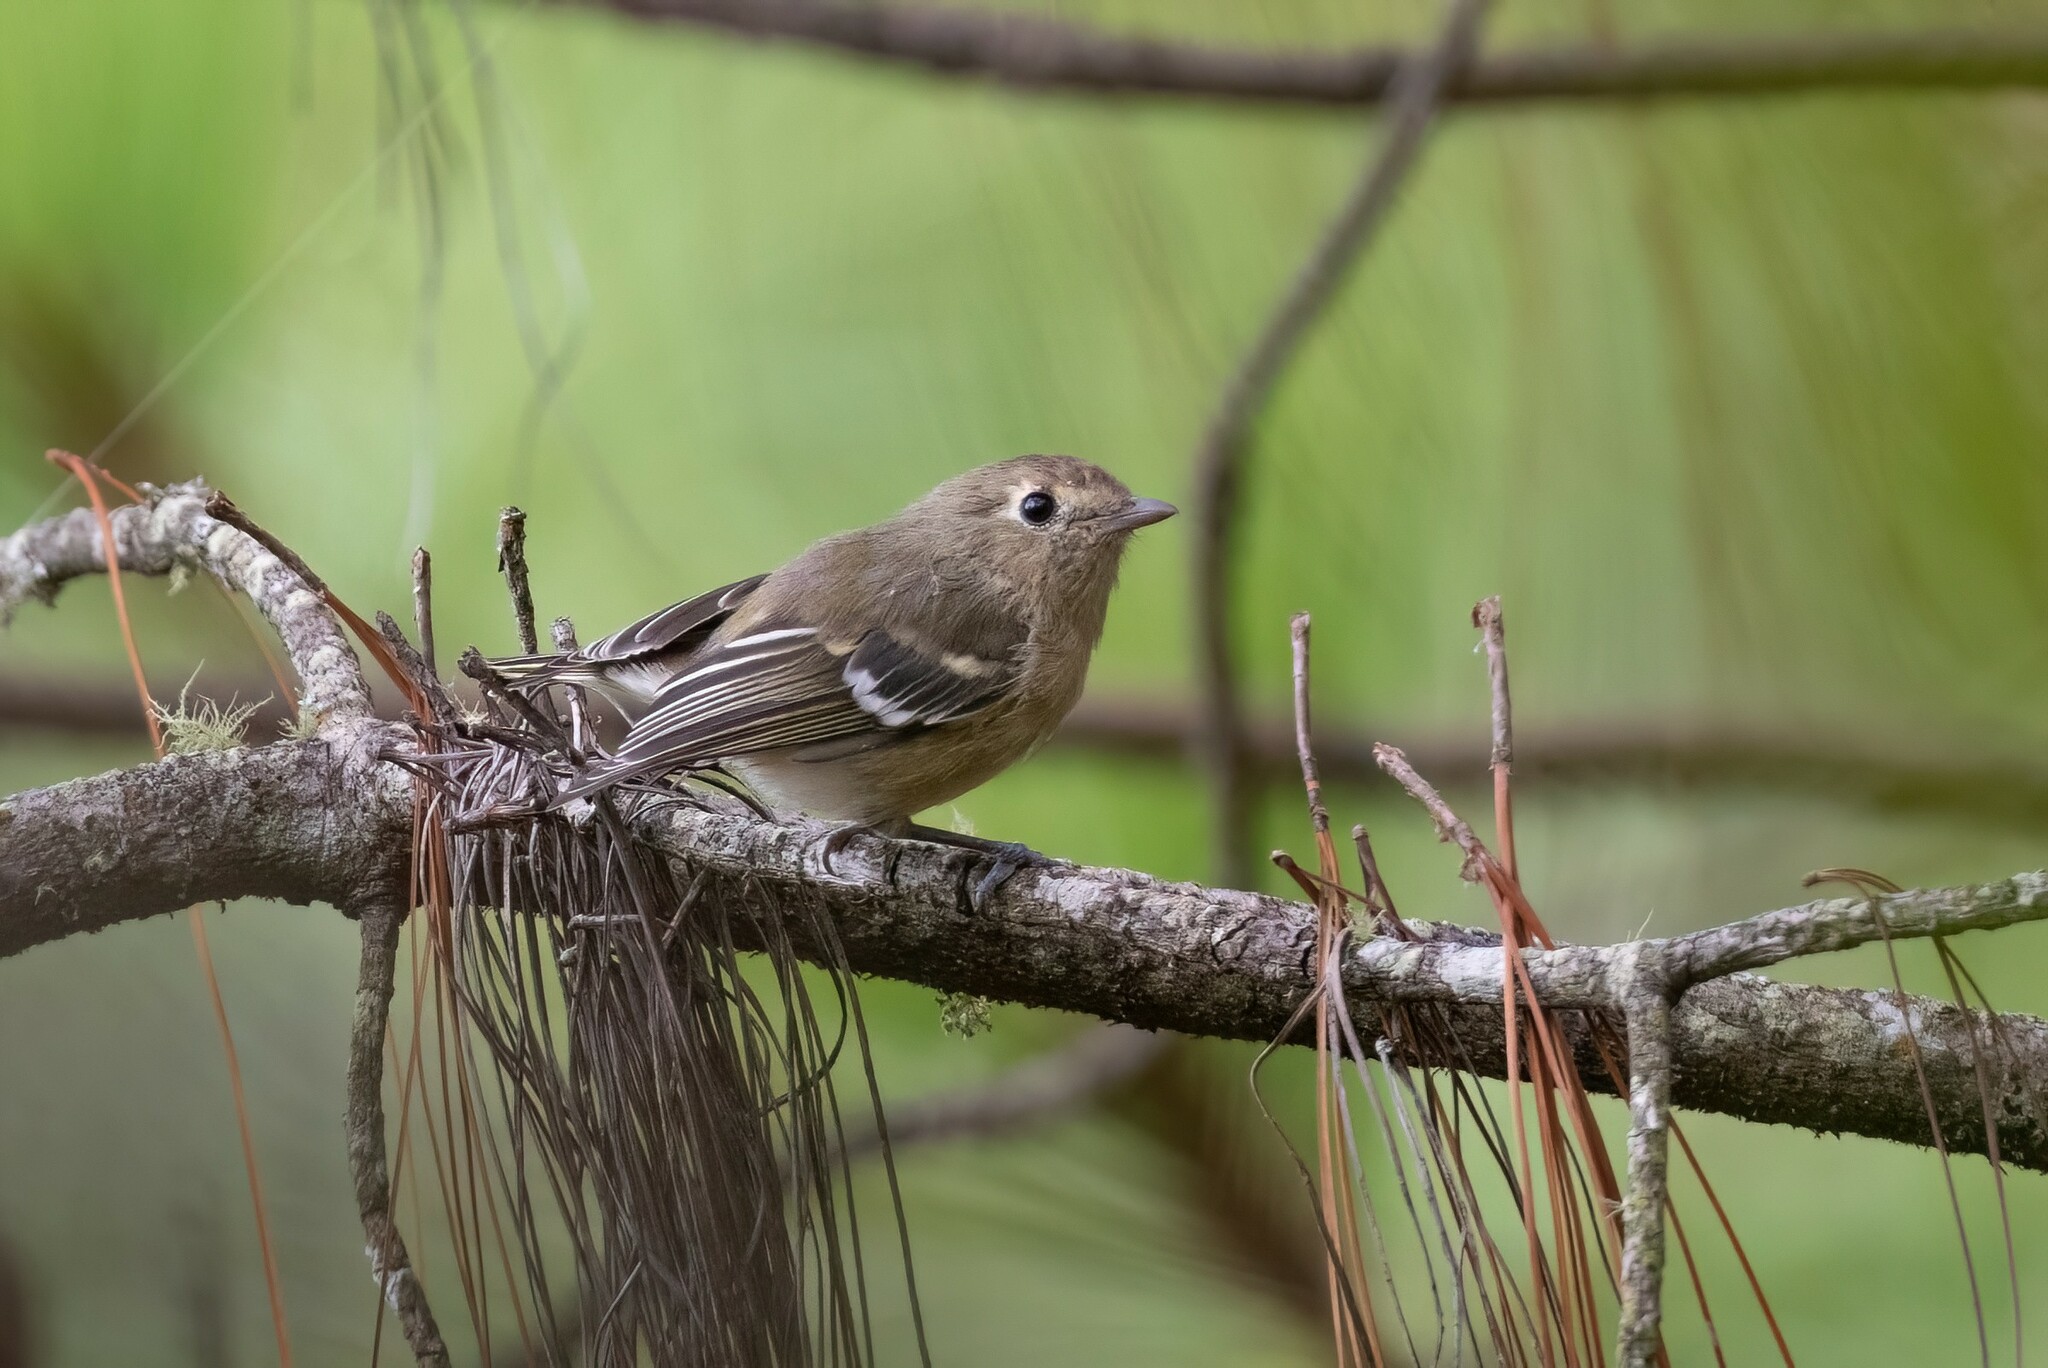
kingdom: Animalia
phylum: Chordata
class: Aves
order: Passeriformes
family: Vireonidae
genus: Vireo
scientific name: Vireo huttoni
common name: Hutton's vireo
